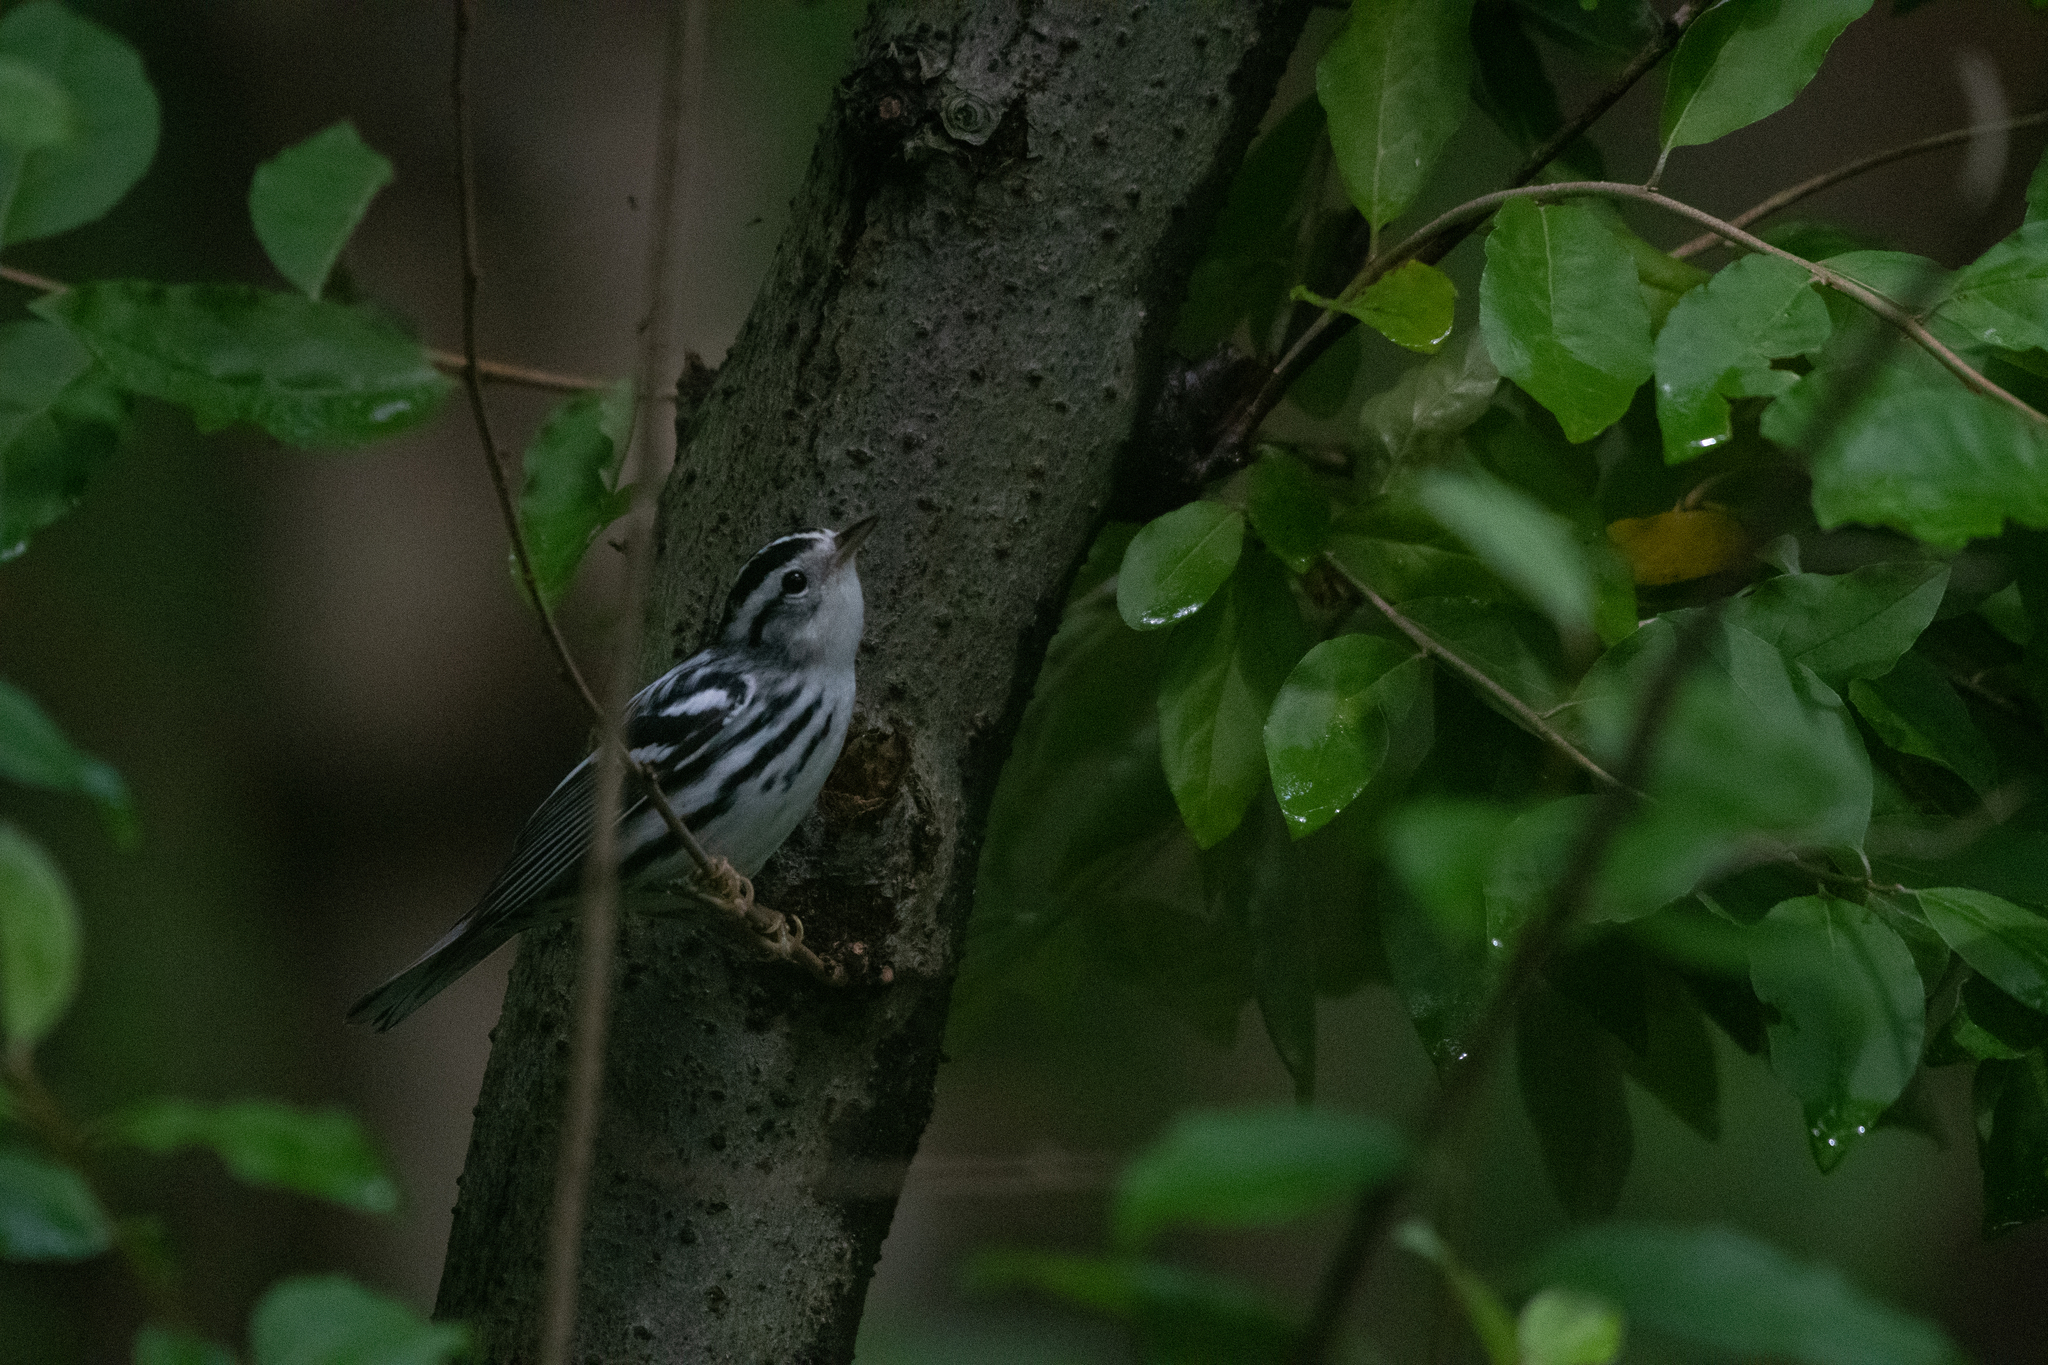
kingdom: Animalia
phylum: Chordata
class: Aves
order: Passeriformes
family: Parulidae
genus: Mniotilta
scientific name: Mniotilta varia
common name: Black-and-white warbler
